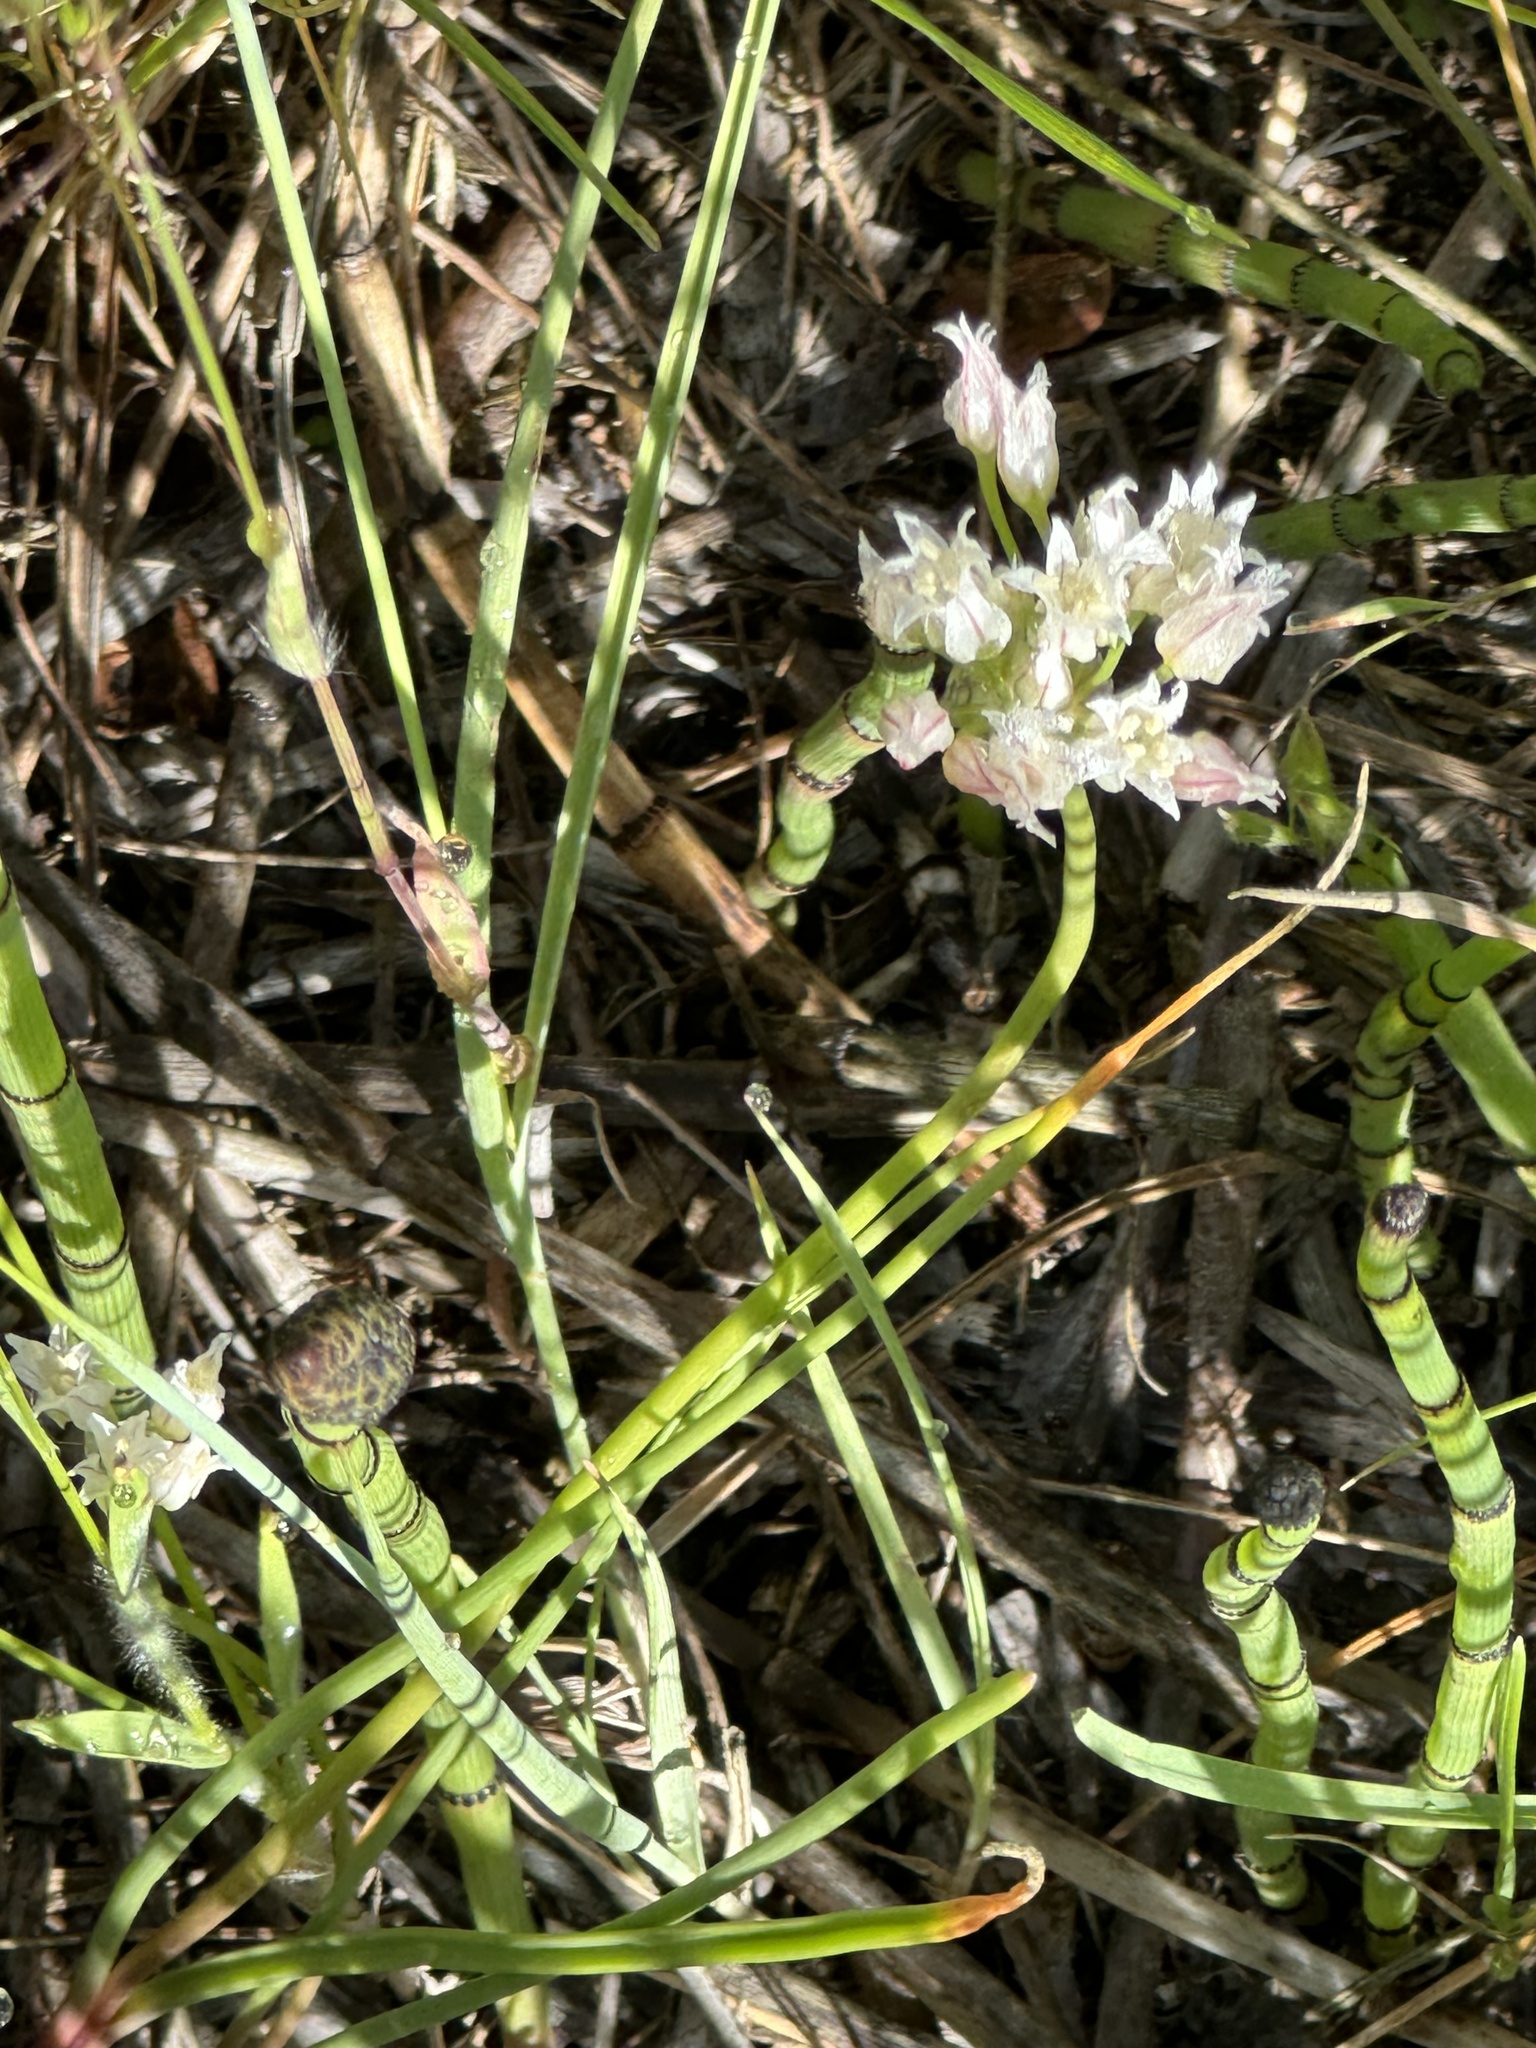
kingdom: Plantae
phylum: Tracheophyta
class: Liliopsida
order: Asparagales
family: Amaryllidaceae
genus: Allium
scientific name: Allium textile
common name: Prairie onion
